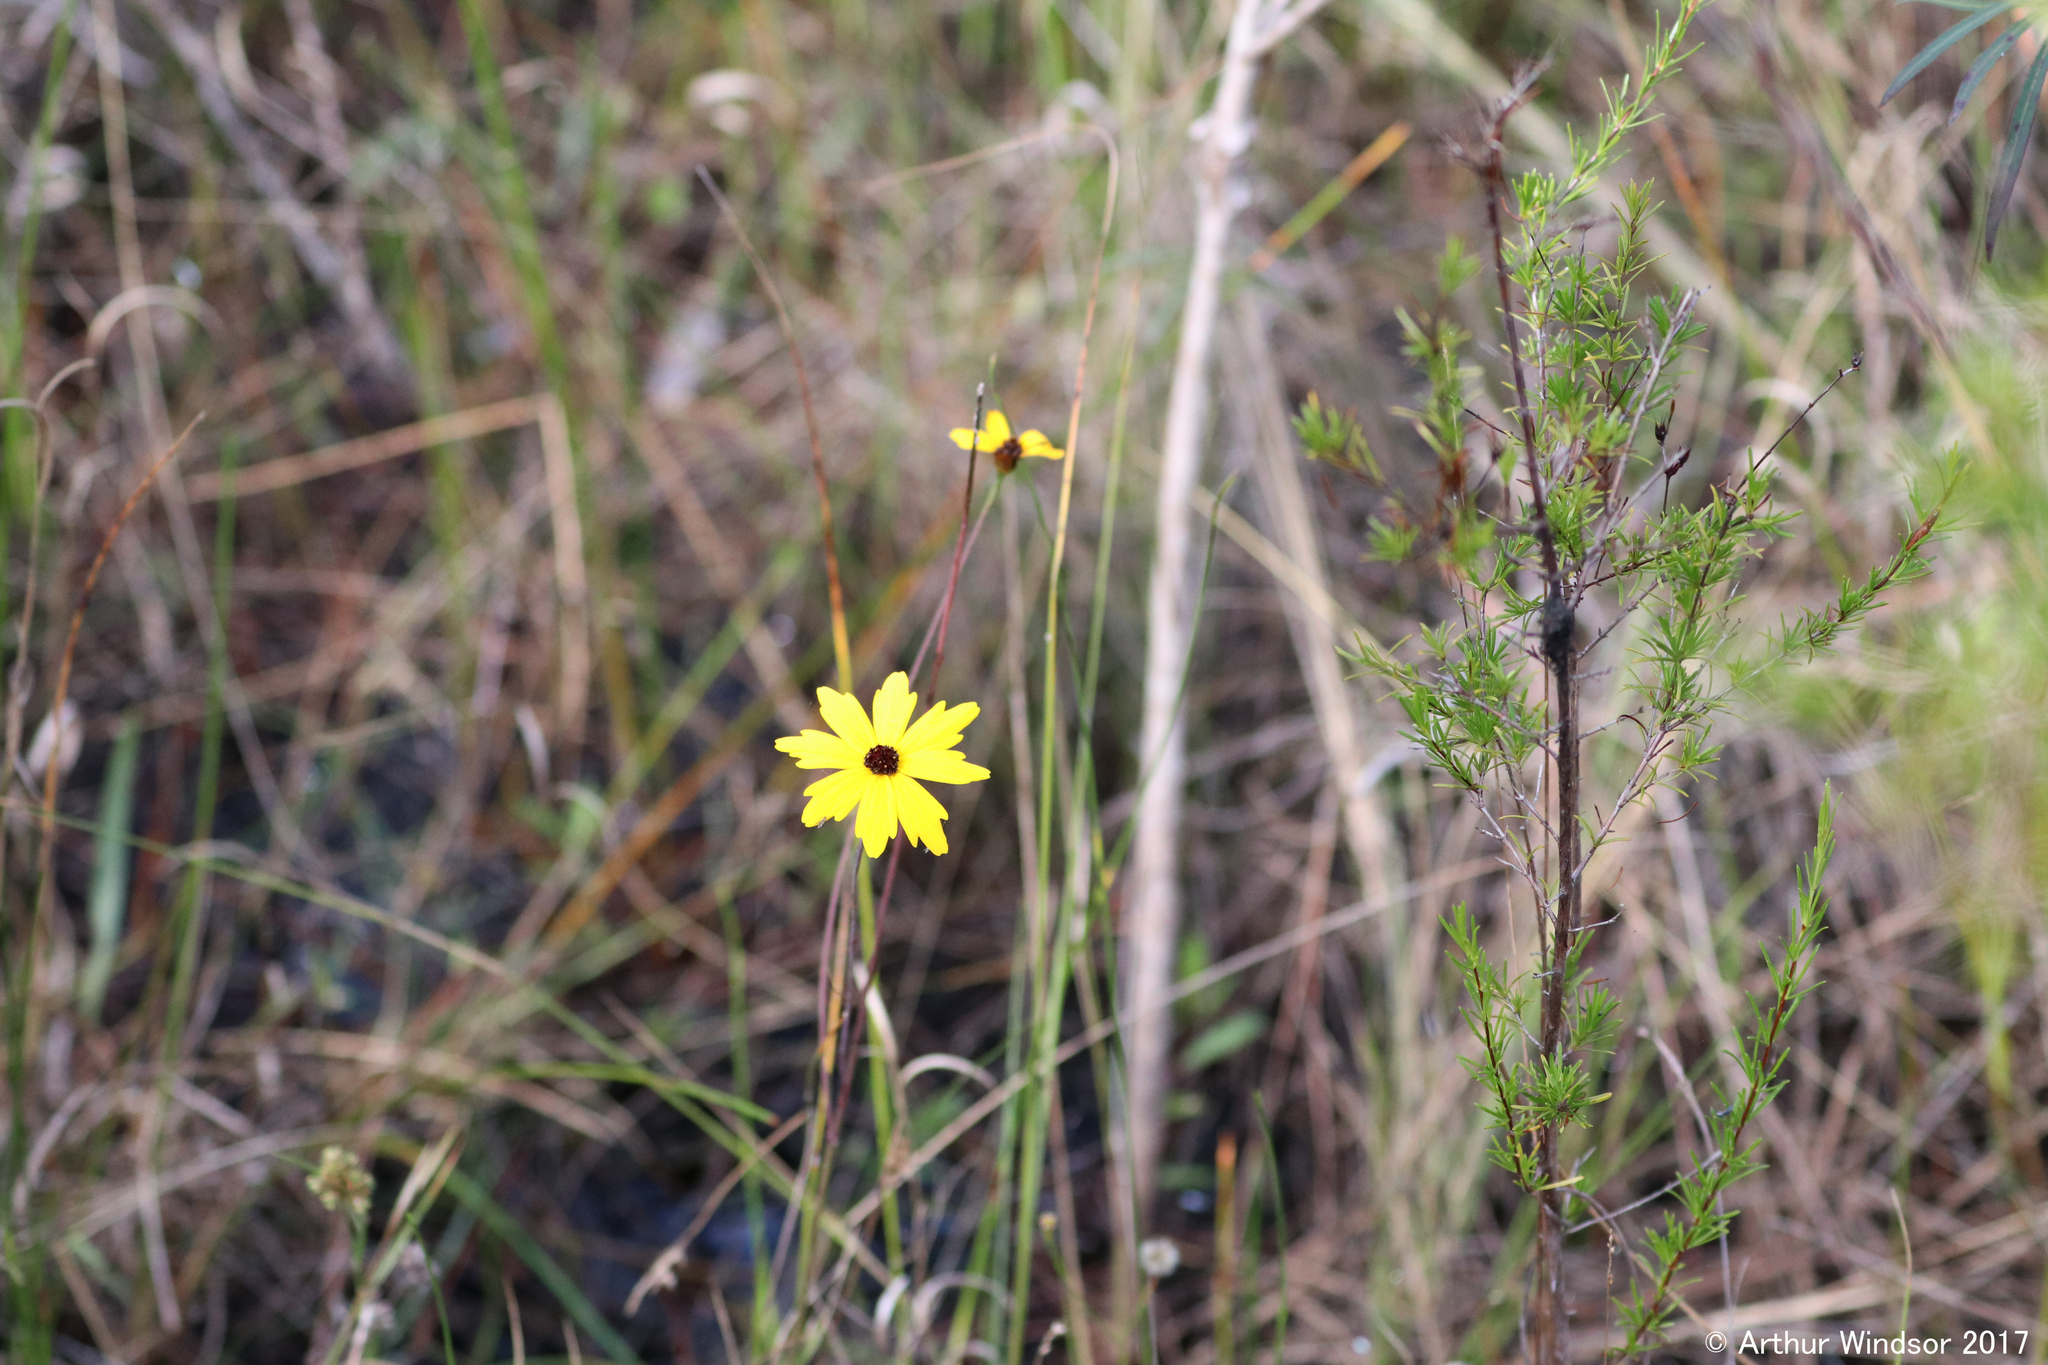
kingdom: Plantae
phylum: Tracheophyta
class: Magnoliopsida
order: Asterales
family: Asteraceae
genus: Coreopsis
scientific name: Coreopsis leavenworthii
